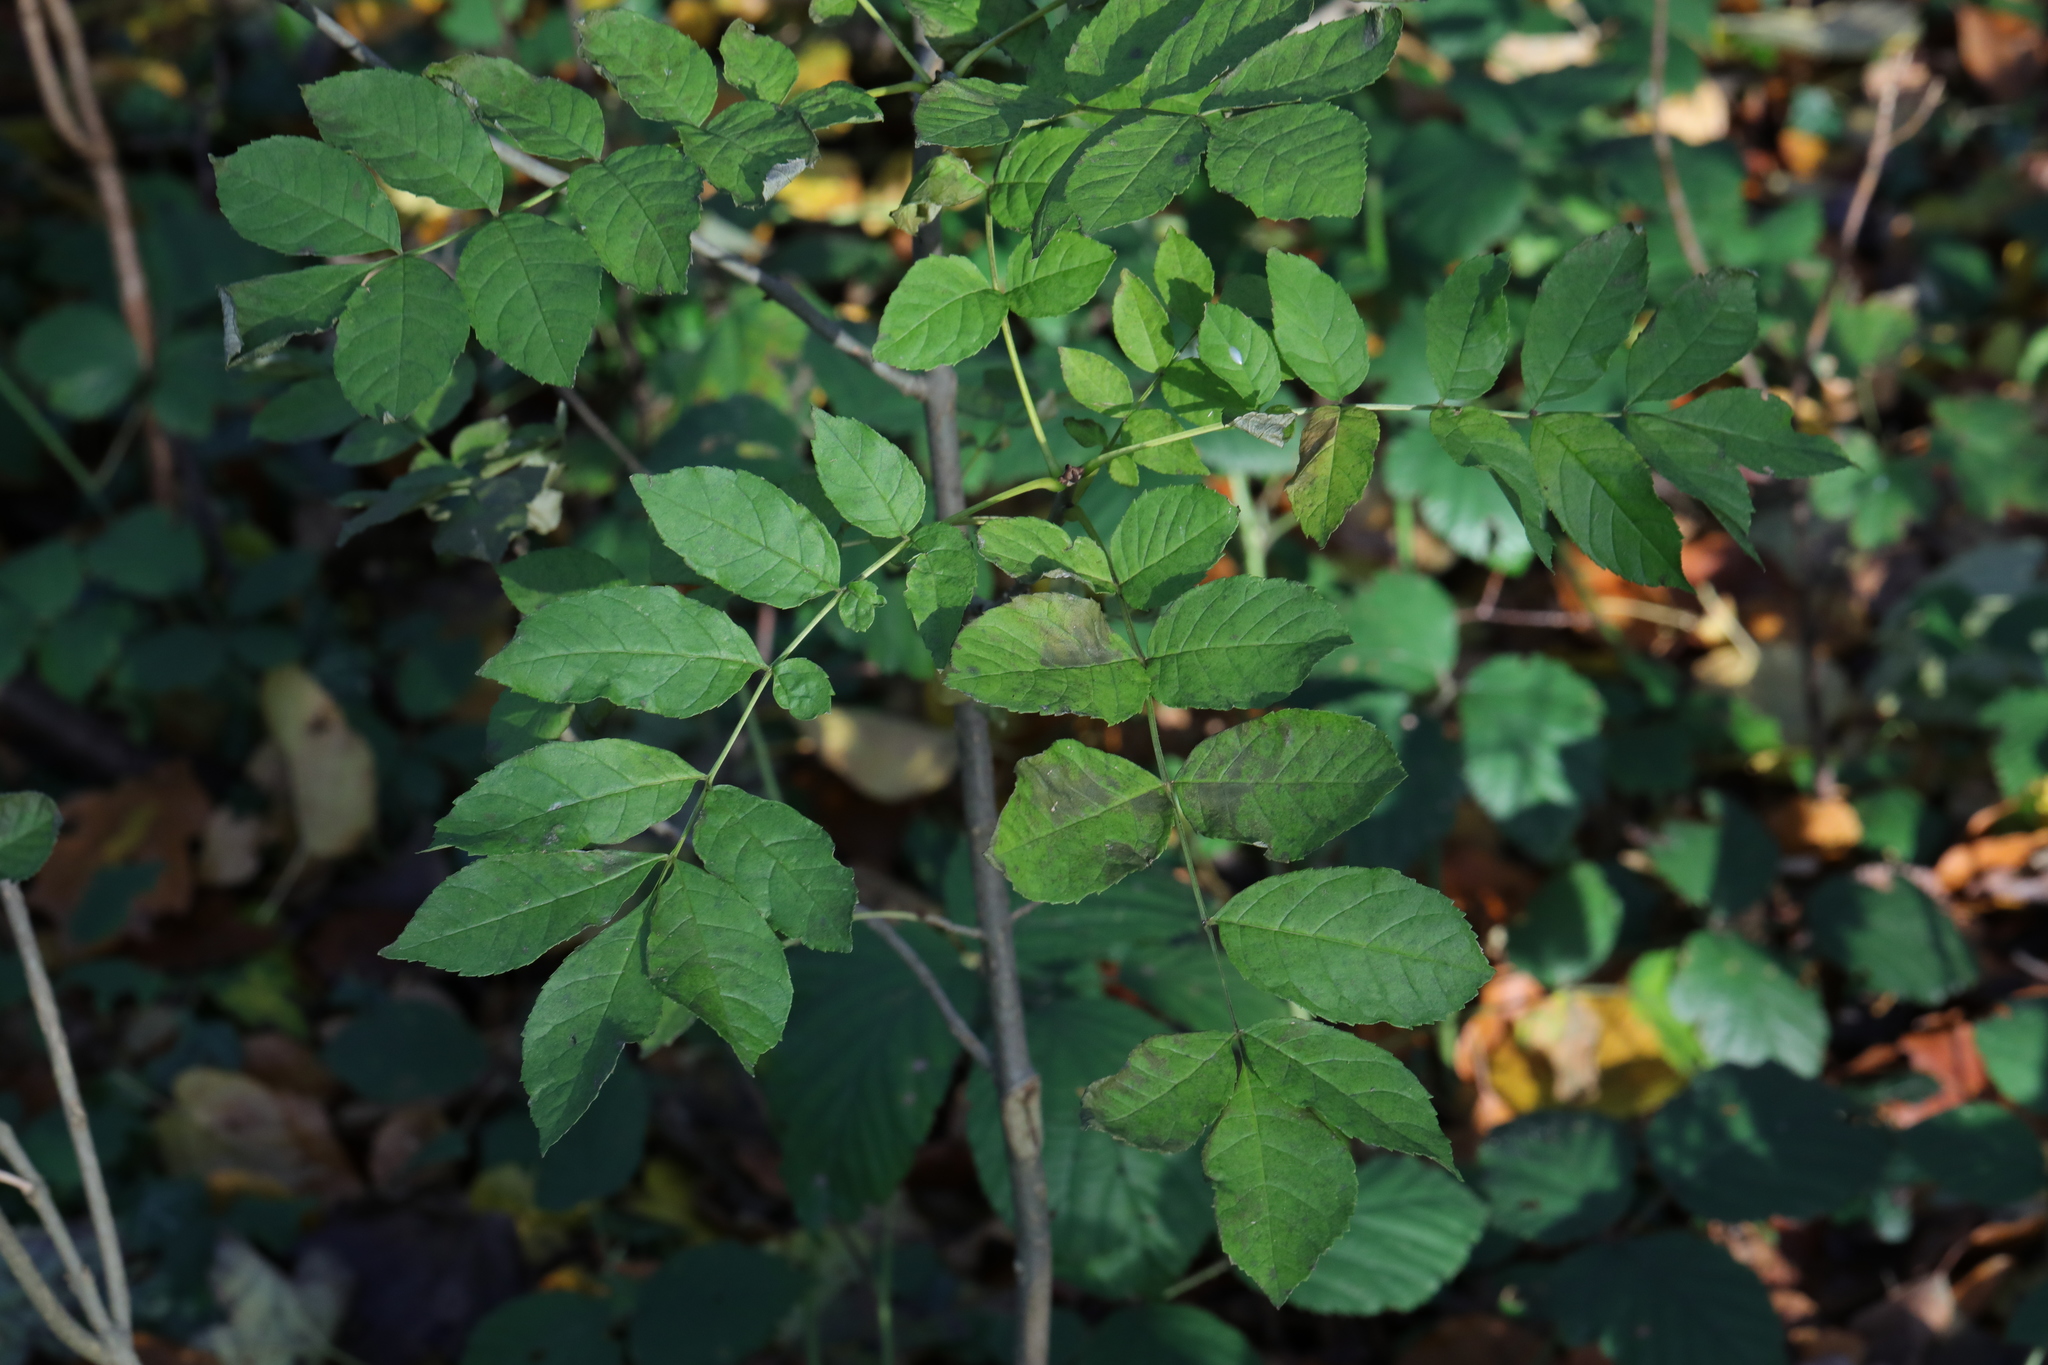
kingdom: Plantae
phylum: Tracheophyta
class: Magnoliopsida
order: Lamiales
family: Oleaceae
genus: Fraxinus
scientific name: Fraxinus excelsior
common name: European ash
